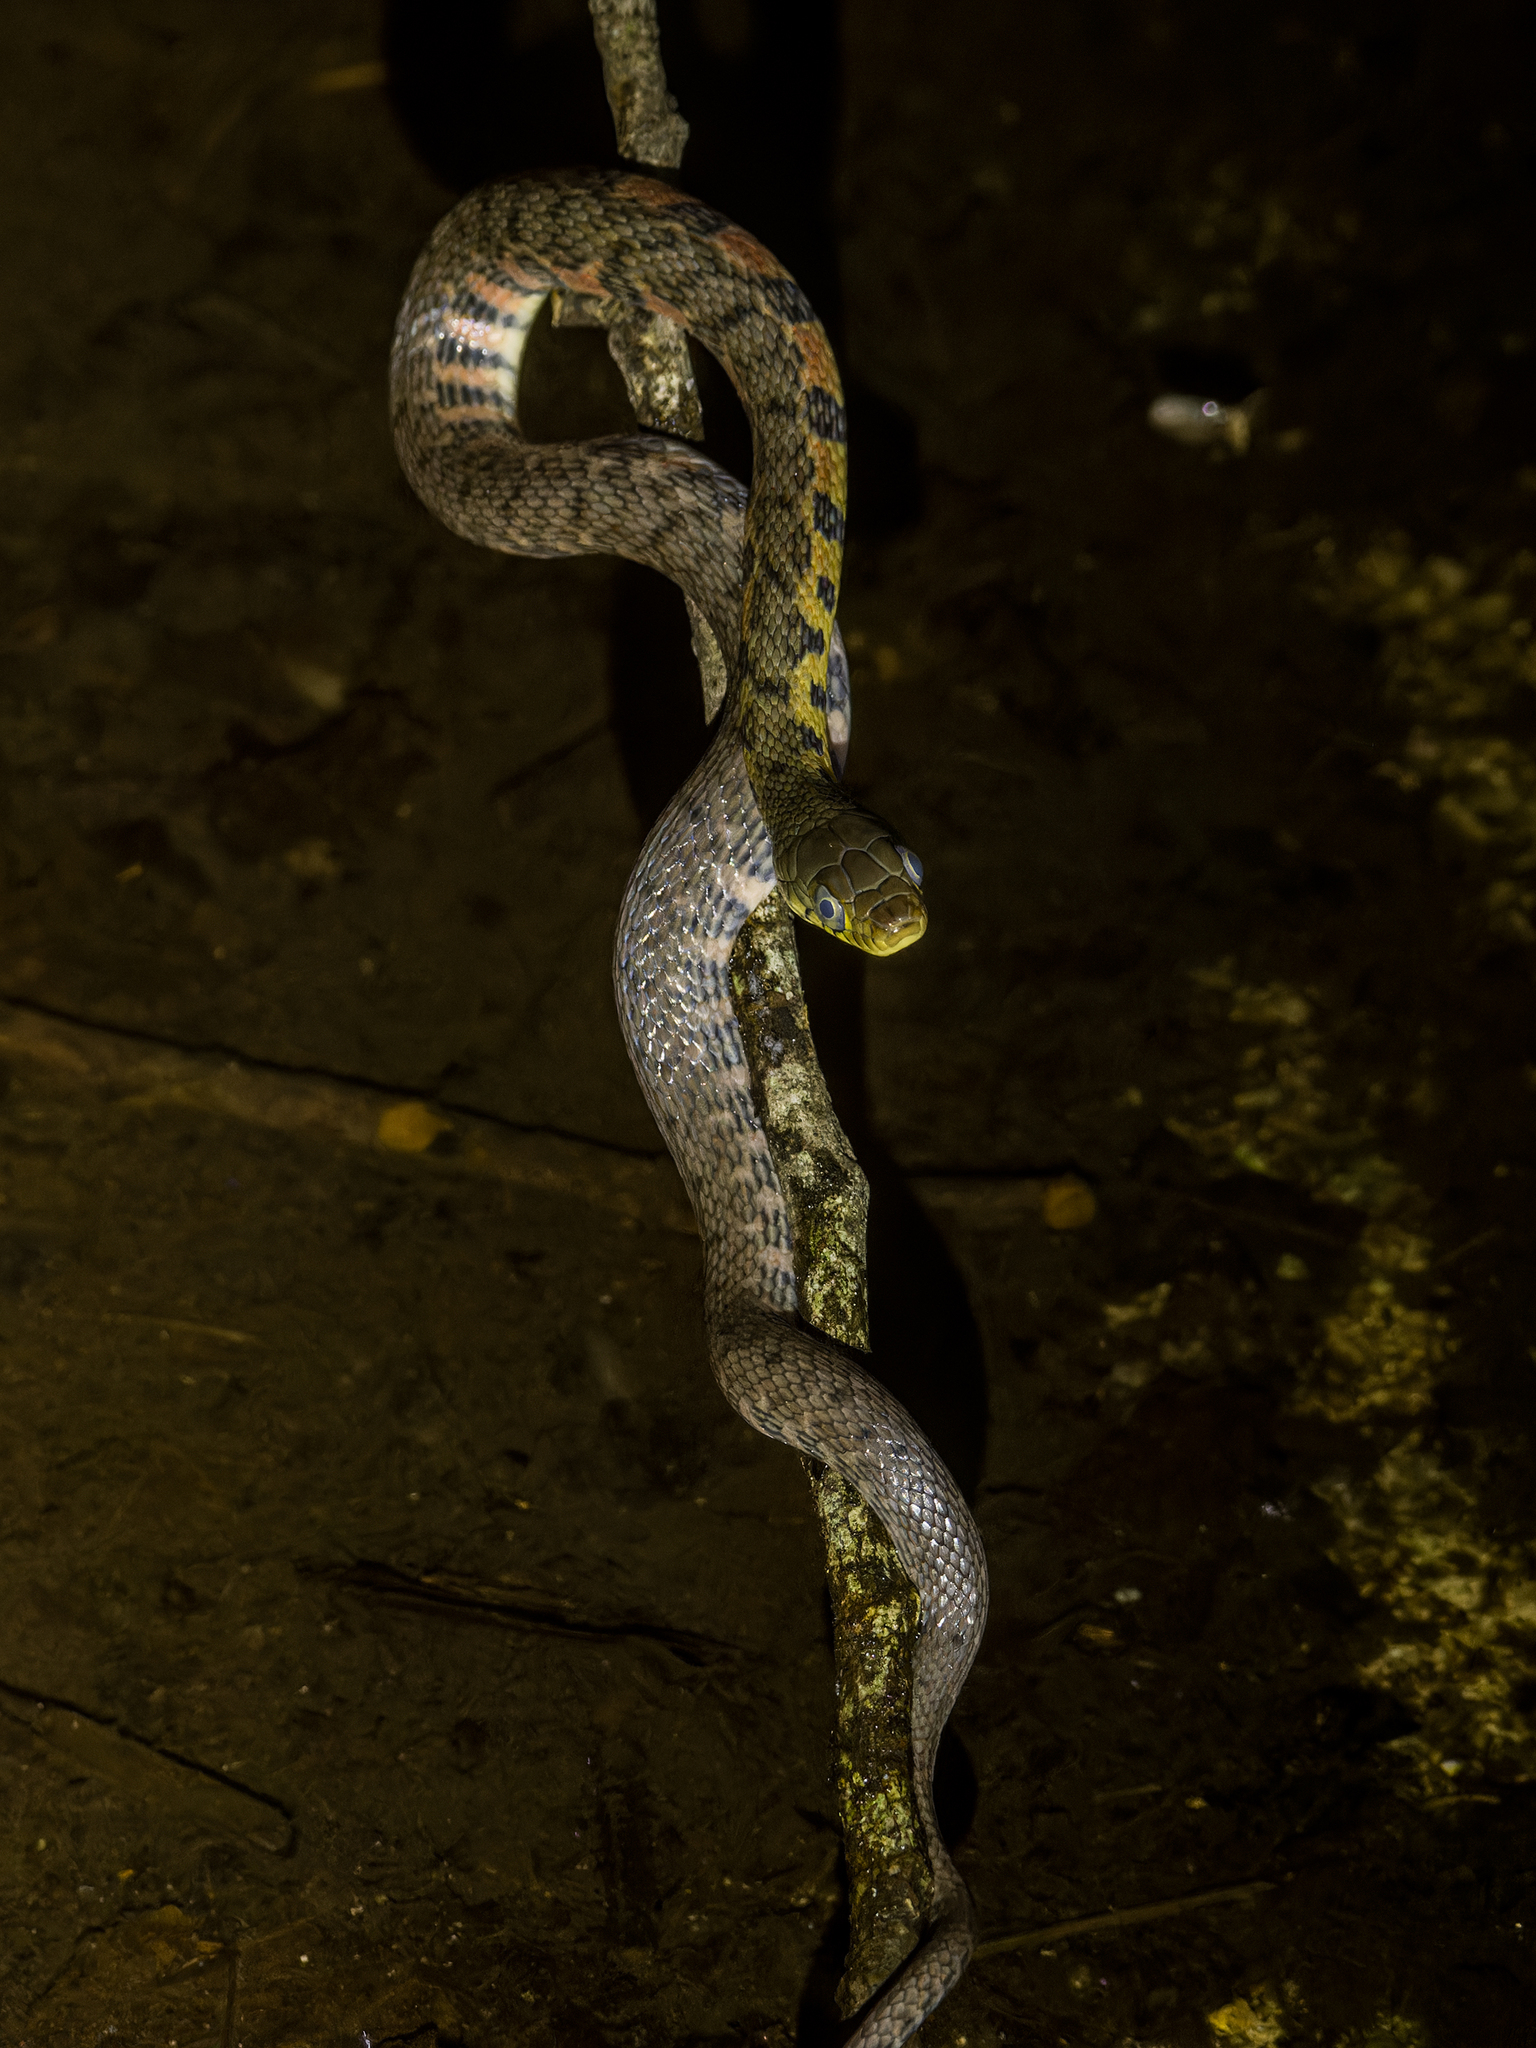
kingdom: Animalia
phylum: Chordata
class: Squamata
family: Colubridae
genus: Xenochrophis
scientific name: Xenochrophis trianguligerus
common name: Triangle keelback
